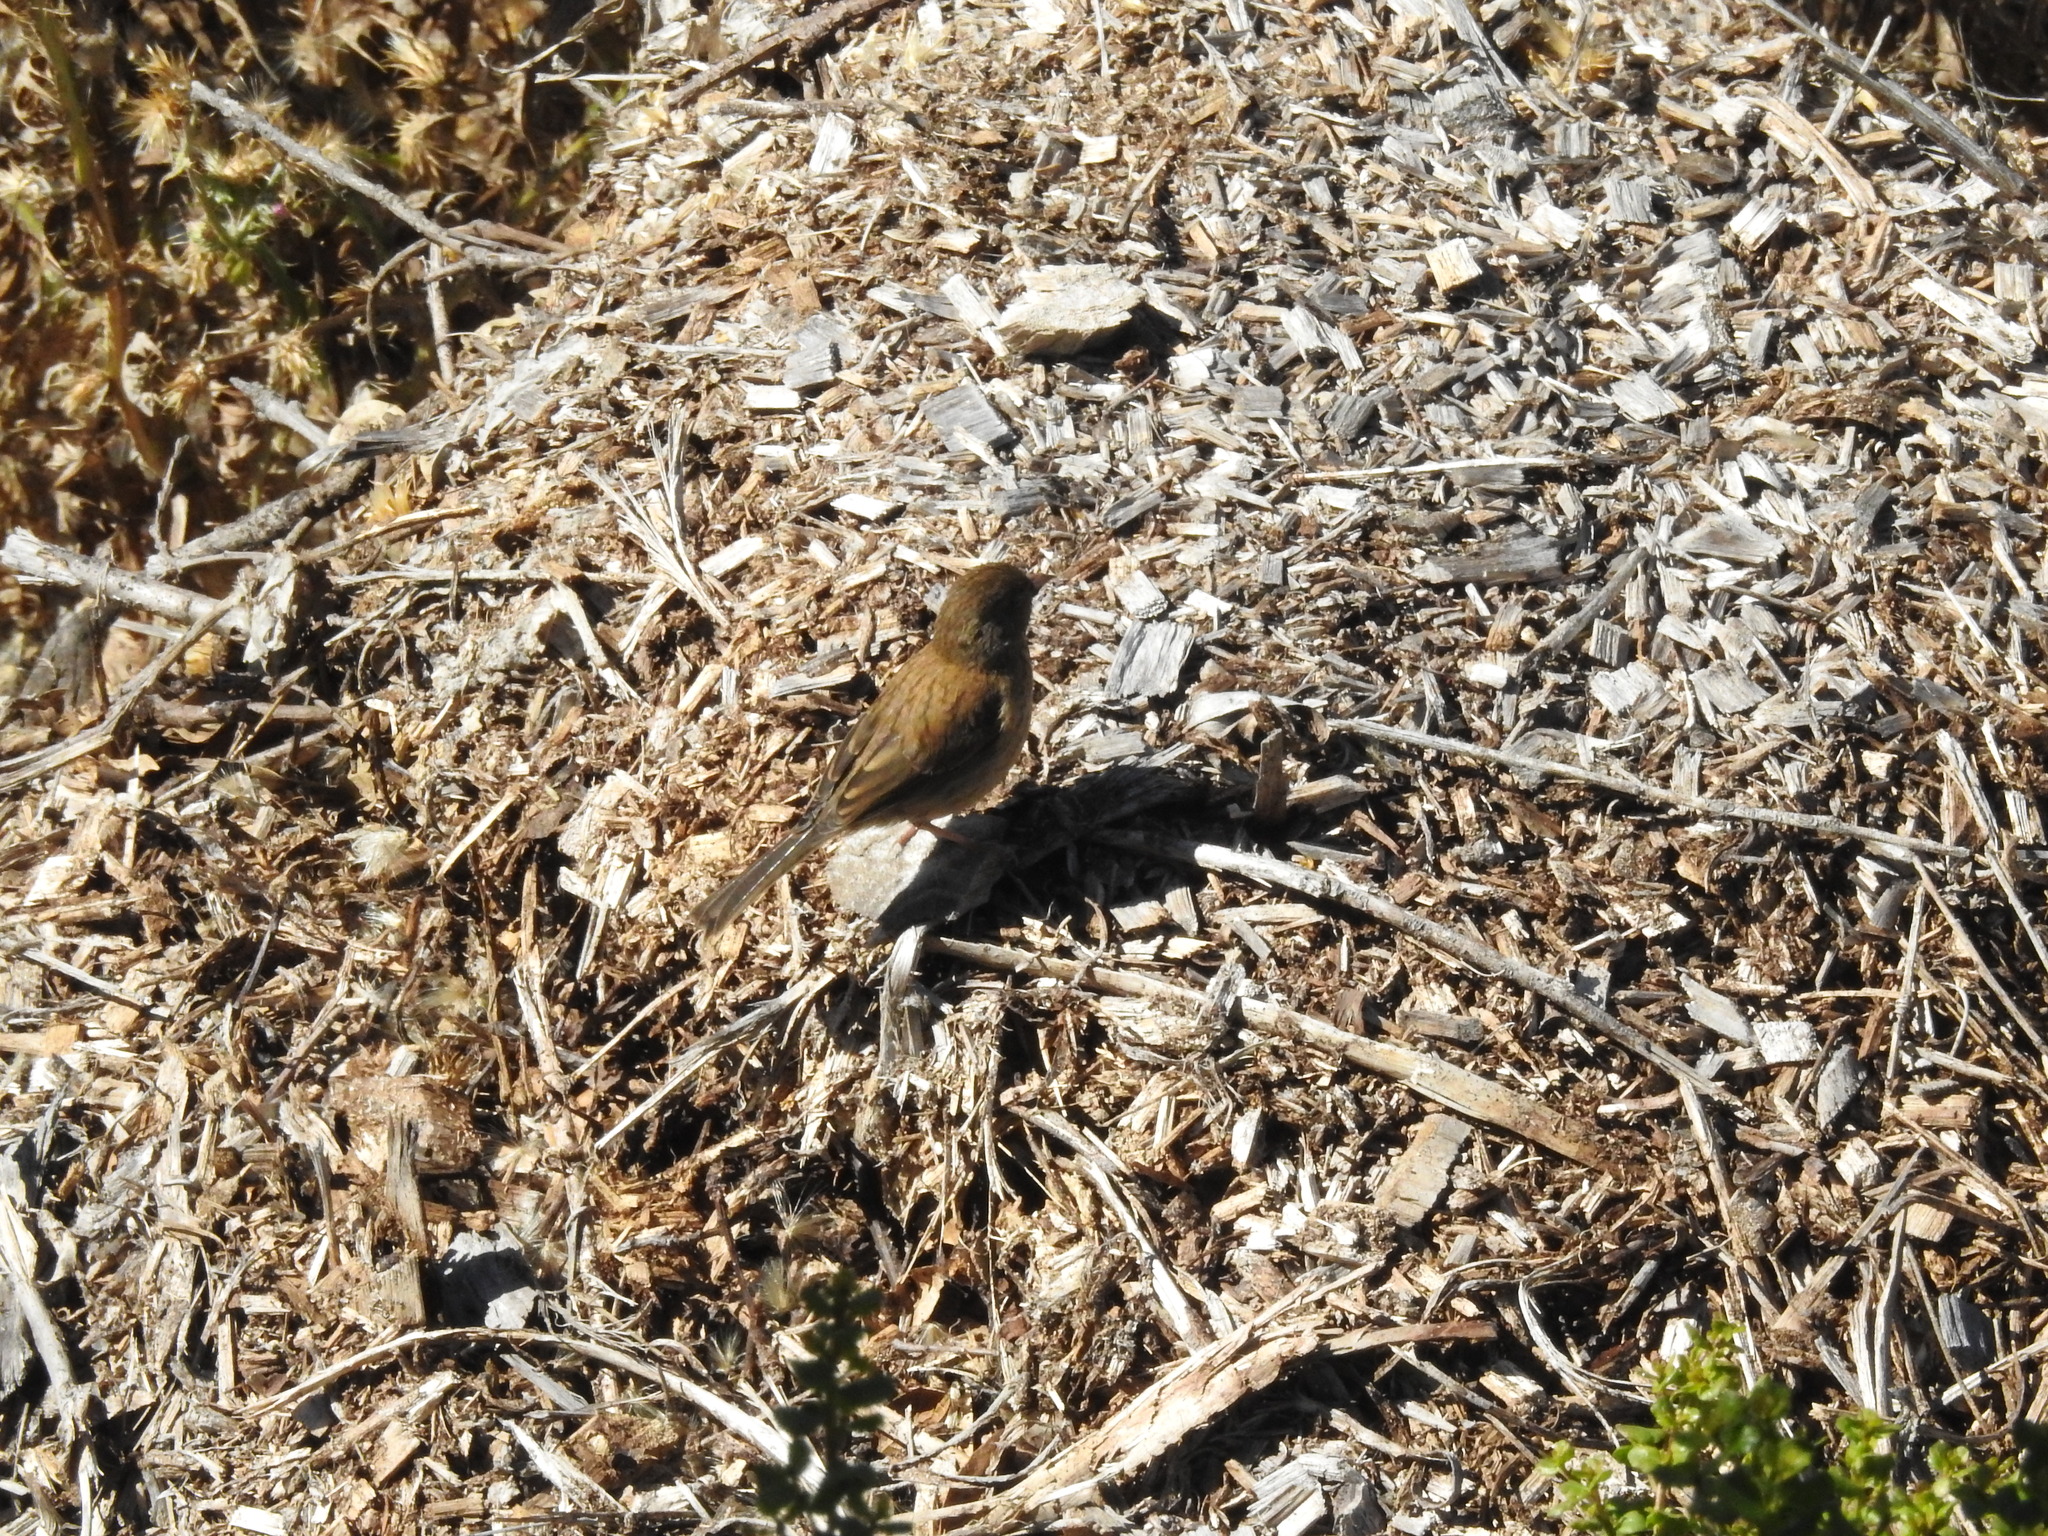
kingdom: Animalia
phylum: Chordata
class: Aves
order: Passeriformes
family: Passerellidae
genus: Junco
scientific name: Junco hyemalis
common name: Dark-eyed junco
